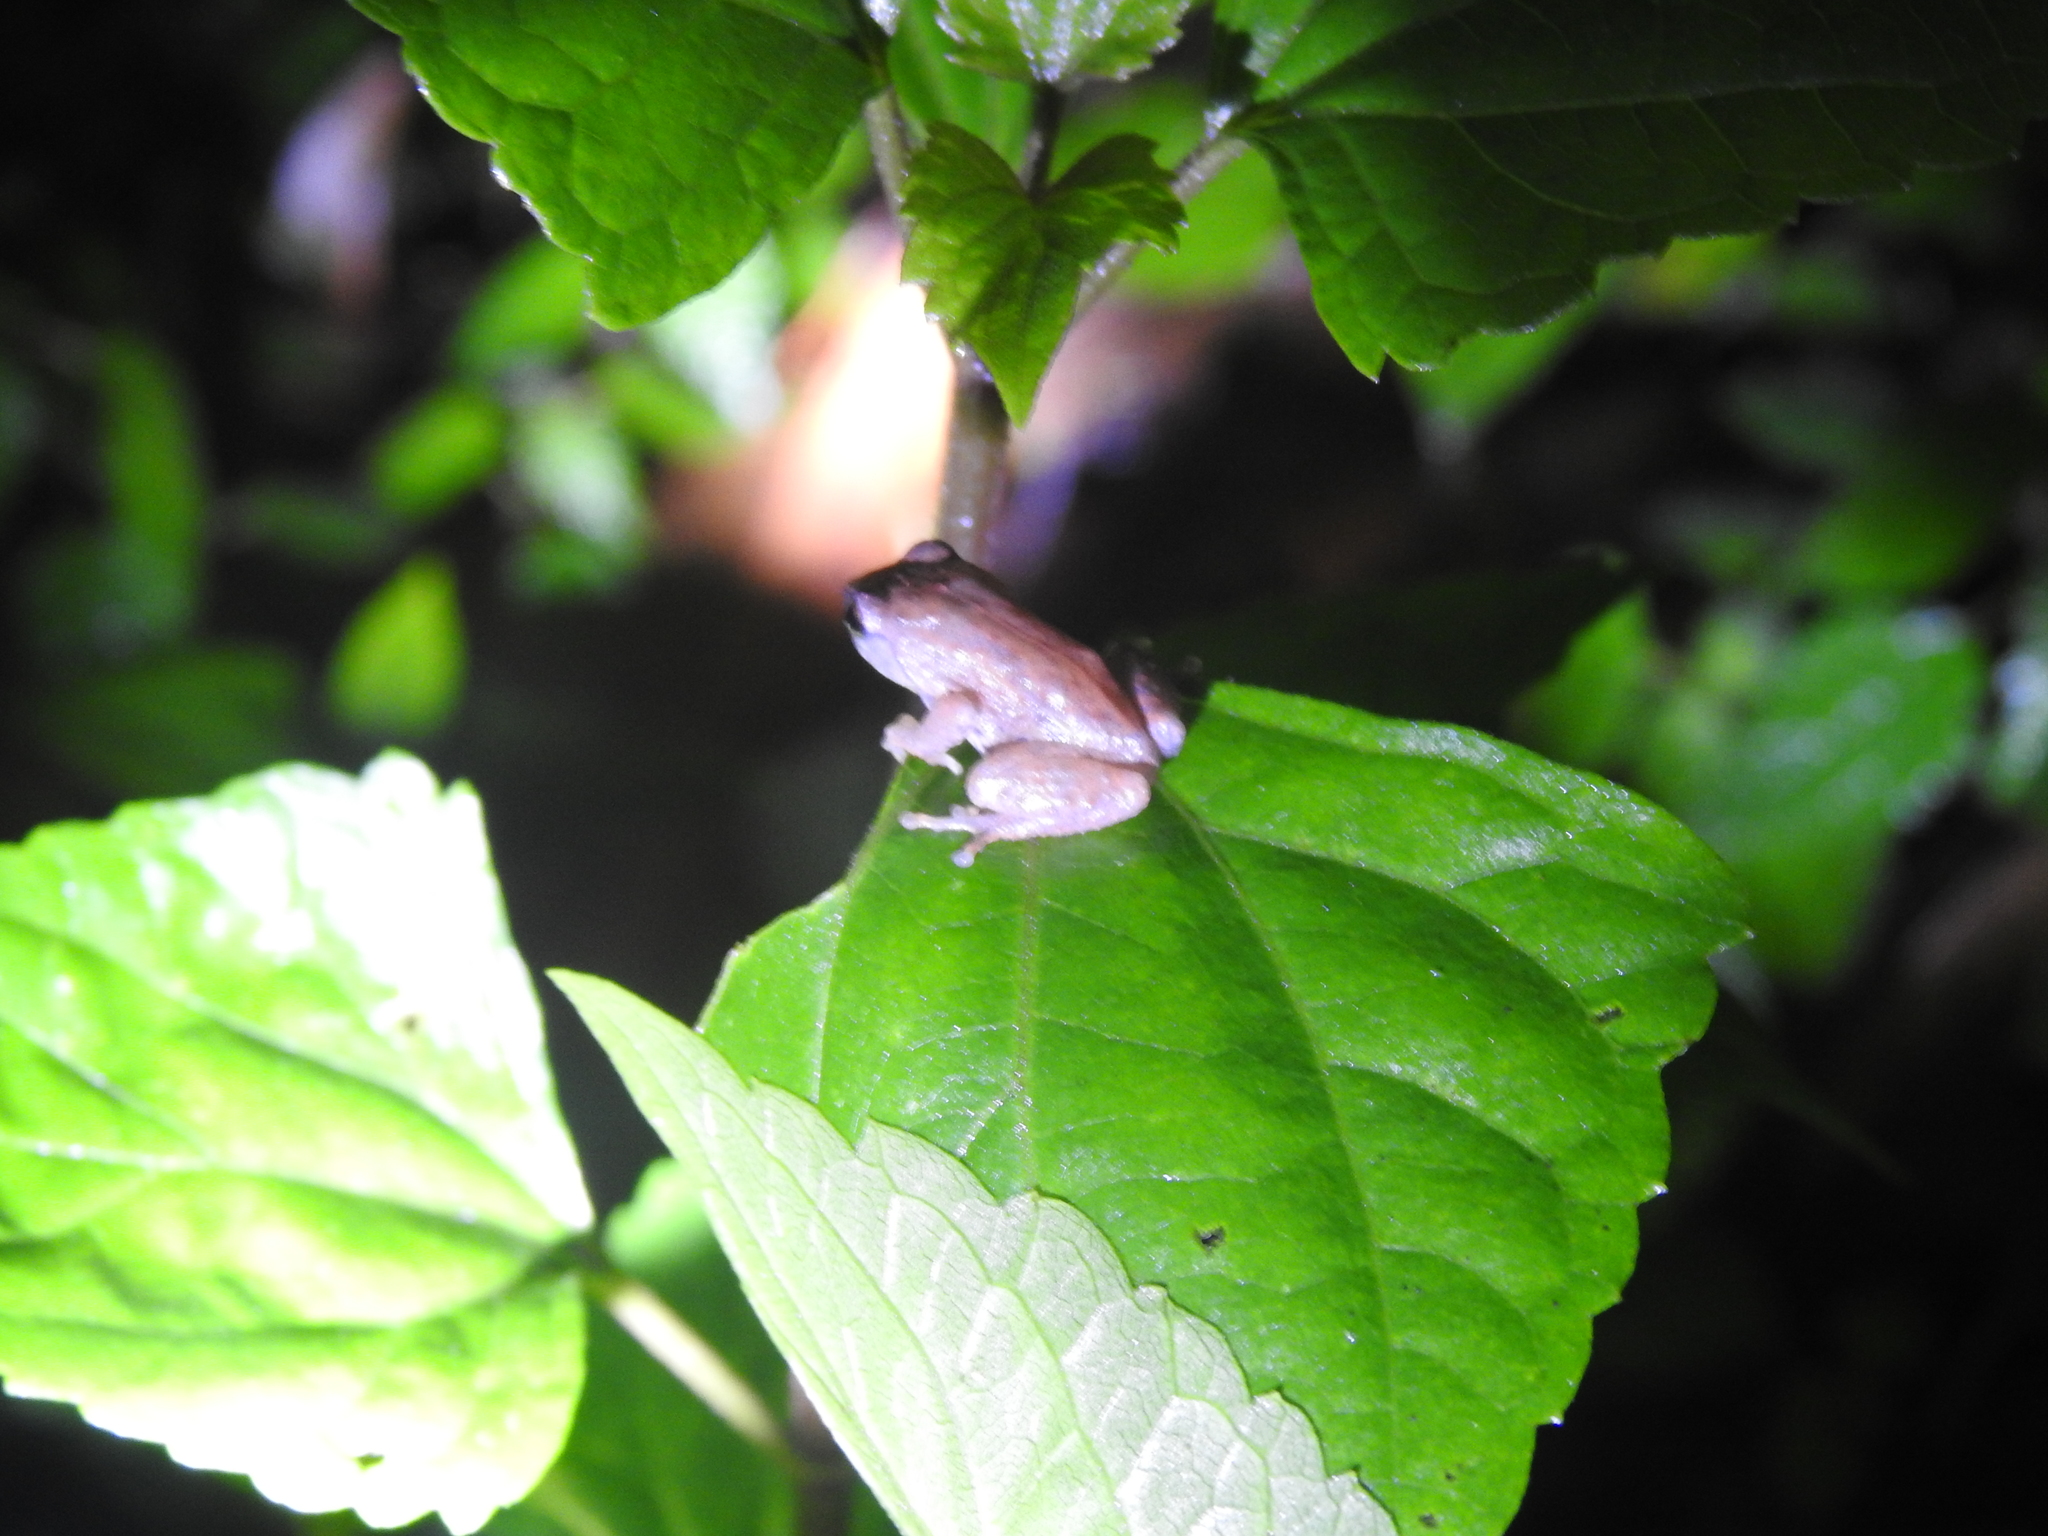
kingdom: Animalia
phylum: Chordata
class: Amphibia
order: Anura
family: Rhacophoridae
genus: Raorchestes
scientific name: Raorchestes dubois
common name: Koadaikanal bush frog
